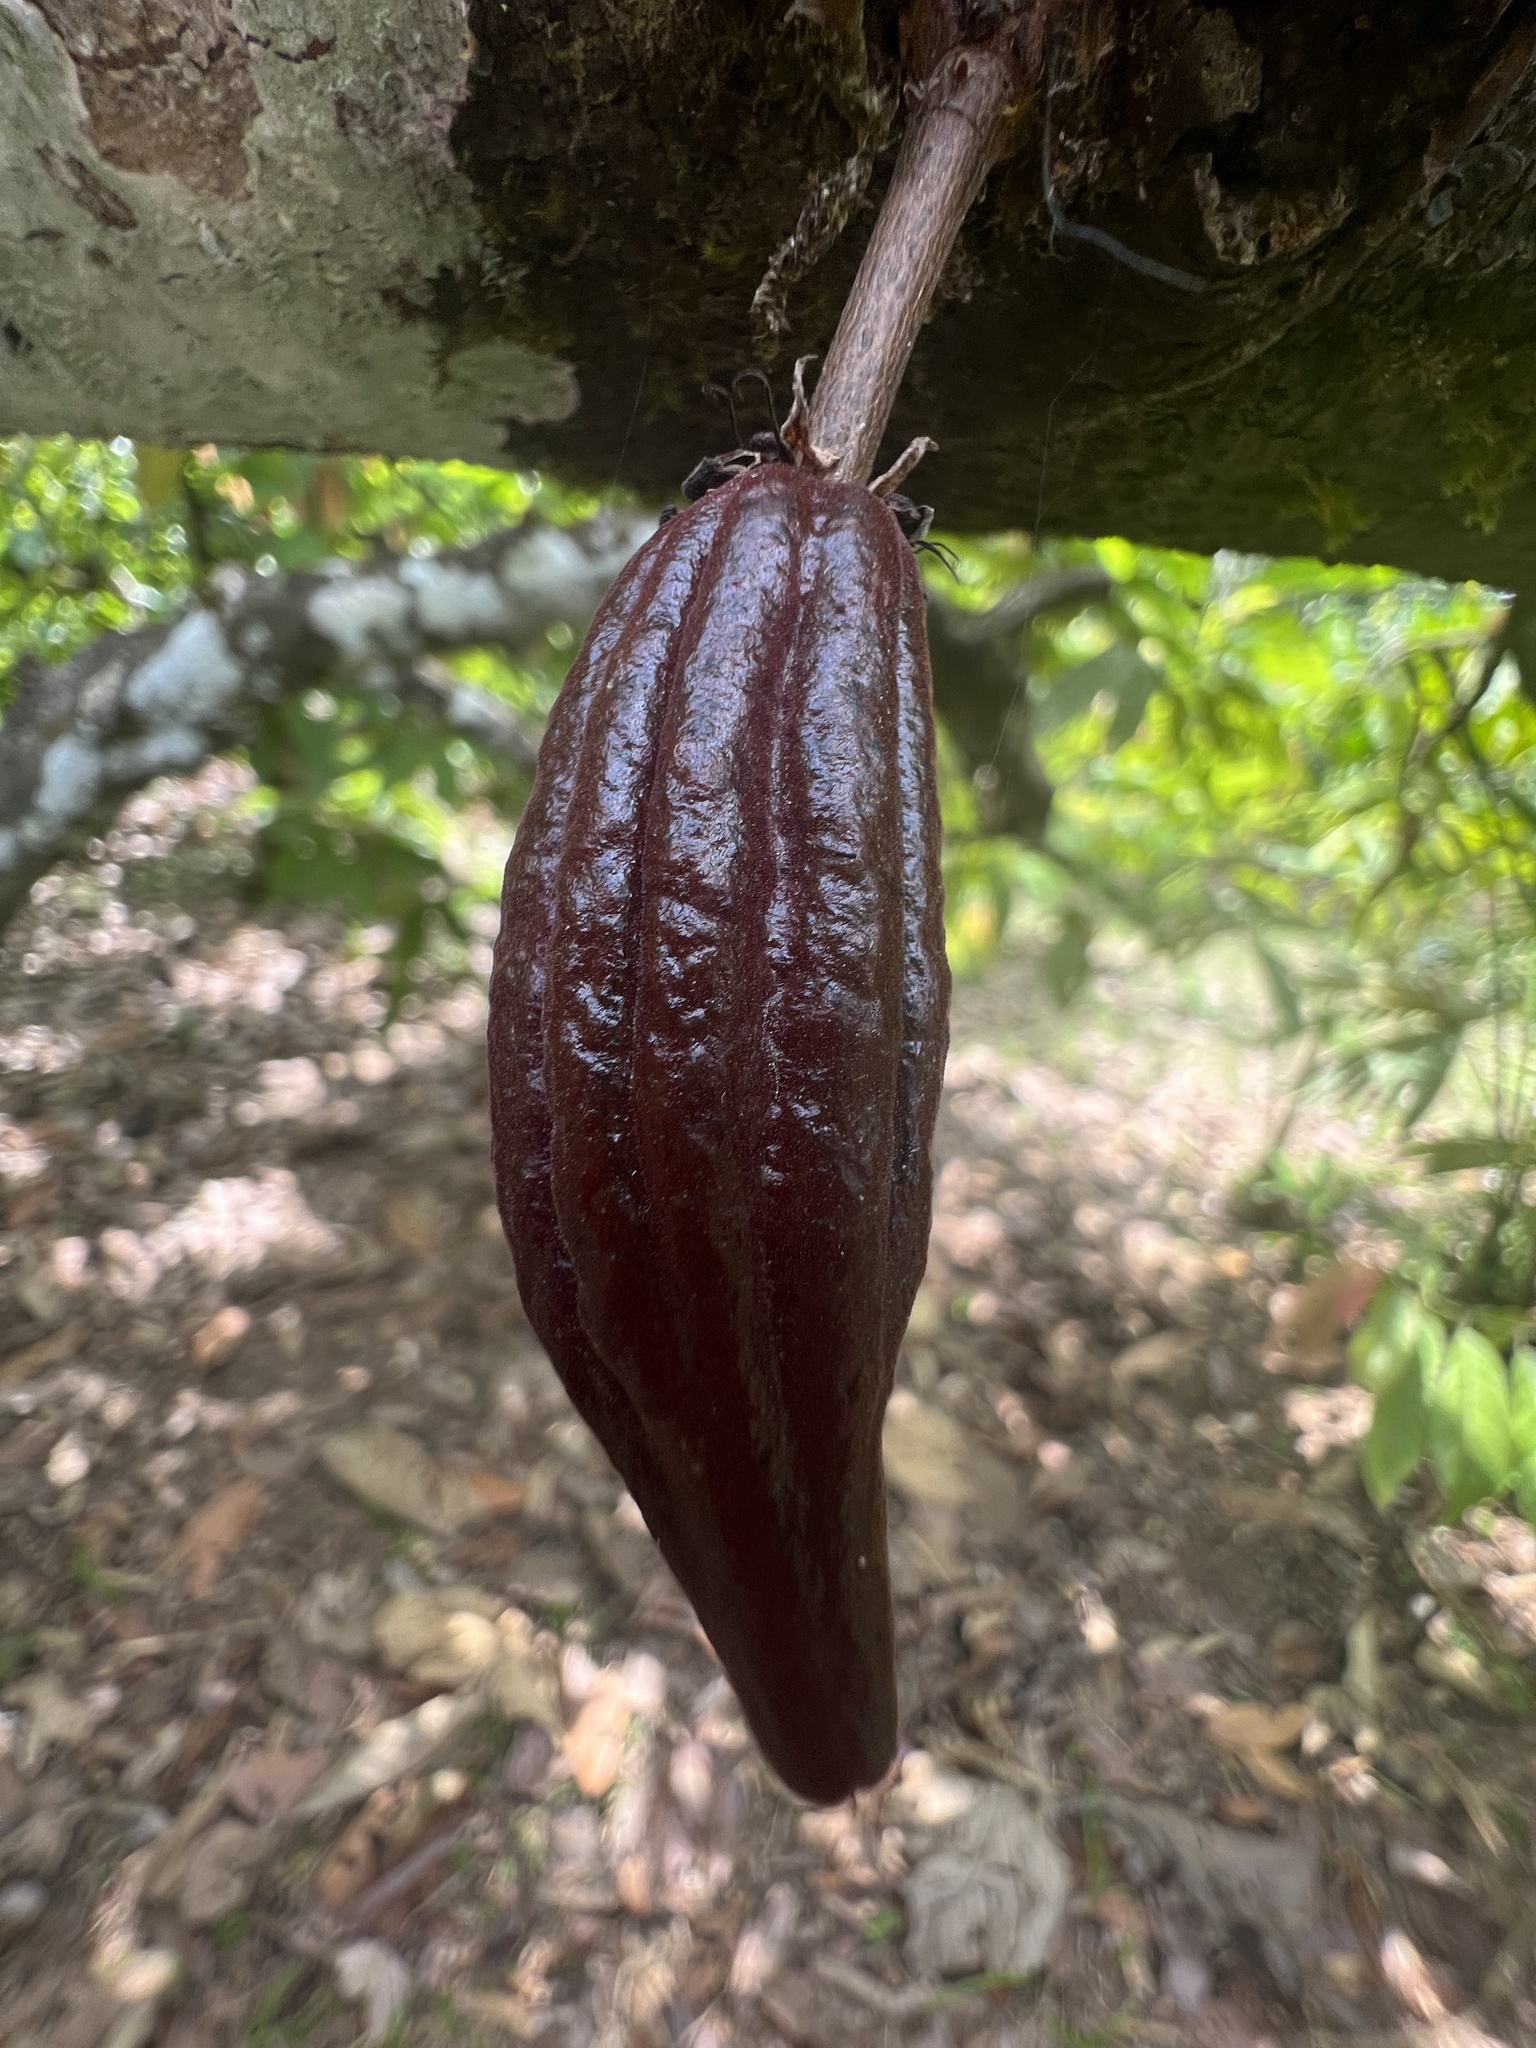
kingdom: Plantae
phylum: Tracheophyta
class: Magnoliopsida
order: Malvales
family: Malvaceae
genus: Theobroma
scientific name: Theobroma cacao
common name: Cocoa
